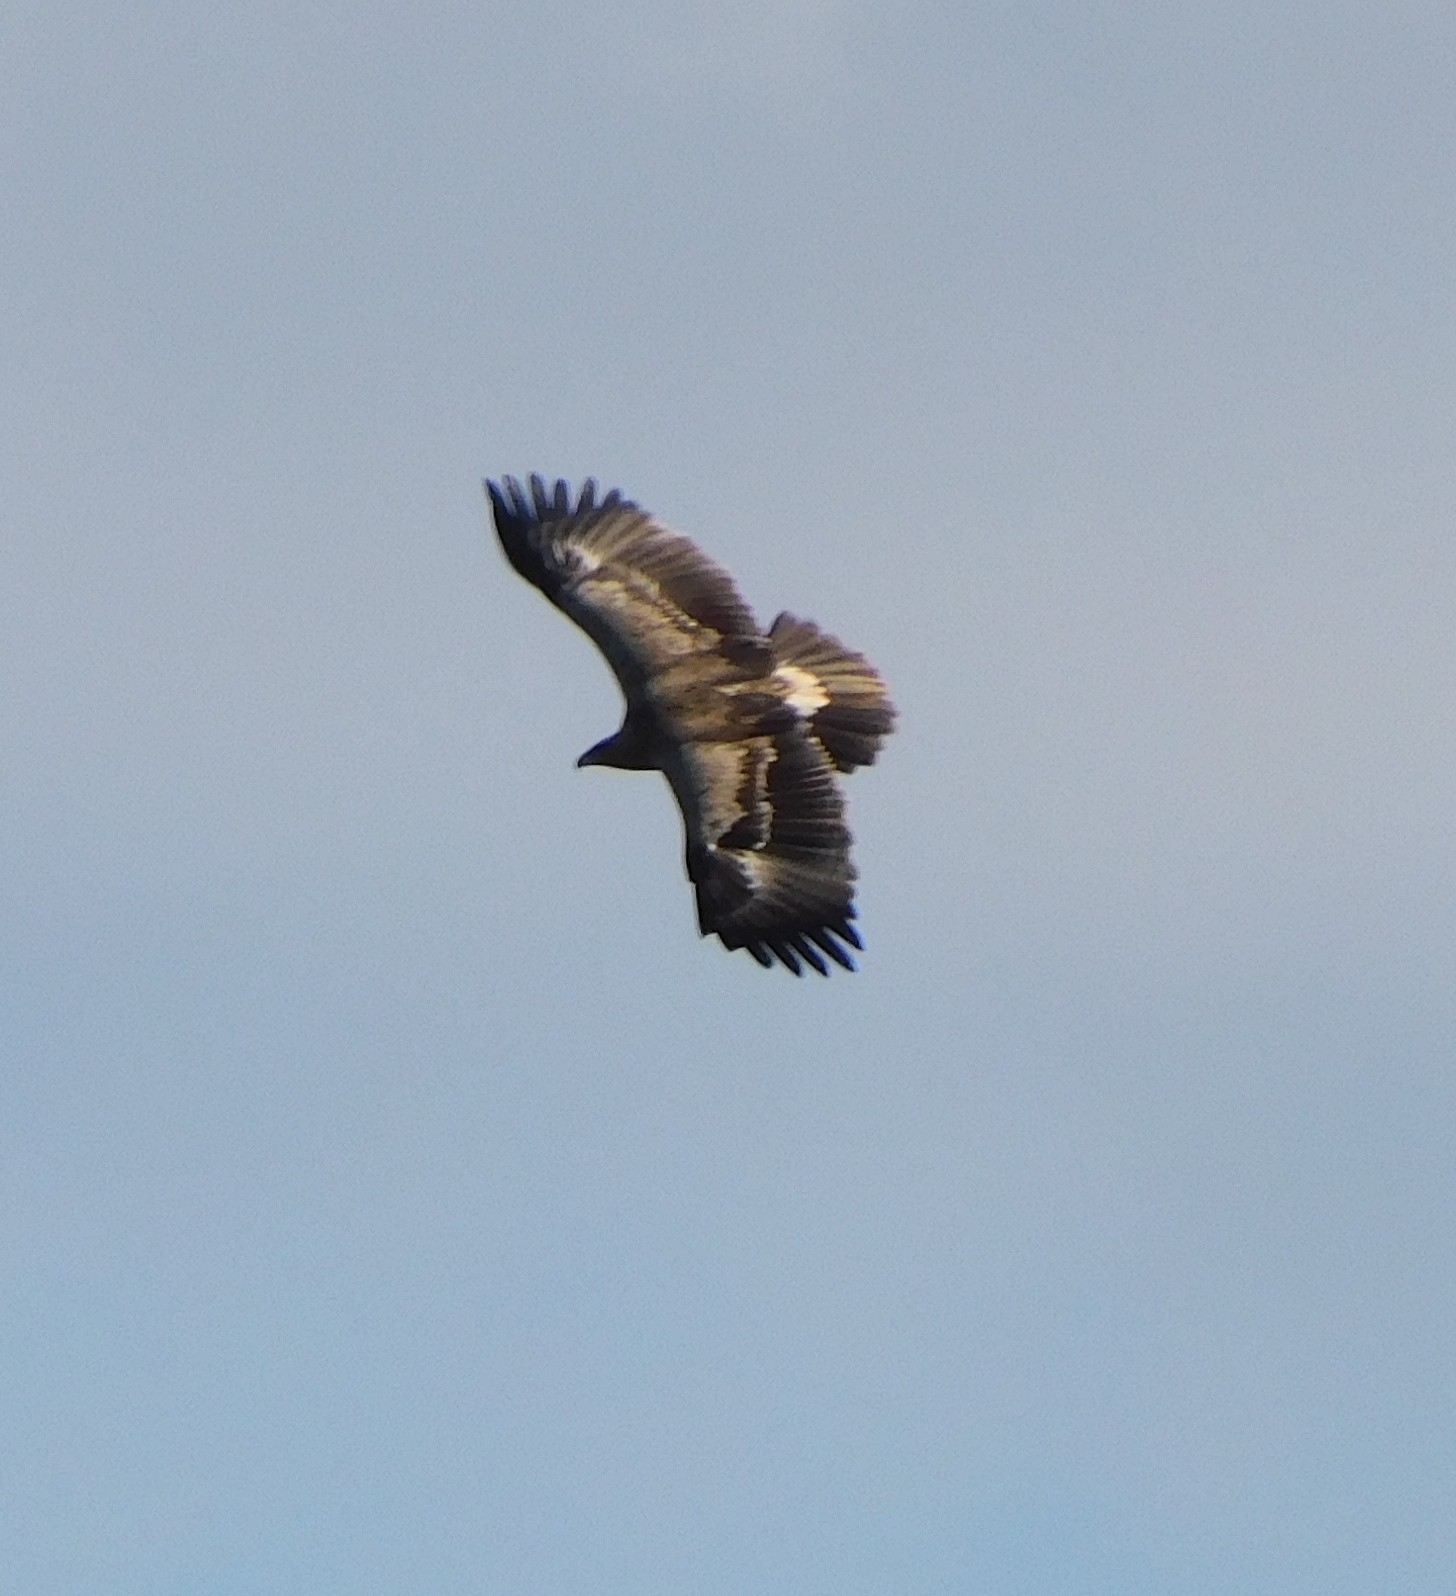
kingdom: Animalia
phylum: Chordata
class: Aves
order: Accipitriformes
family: Accipitridae
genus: Aquila
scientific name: Aquila nipalensis
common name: Steppe eagle
